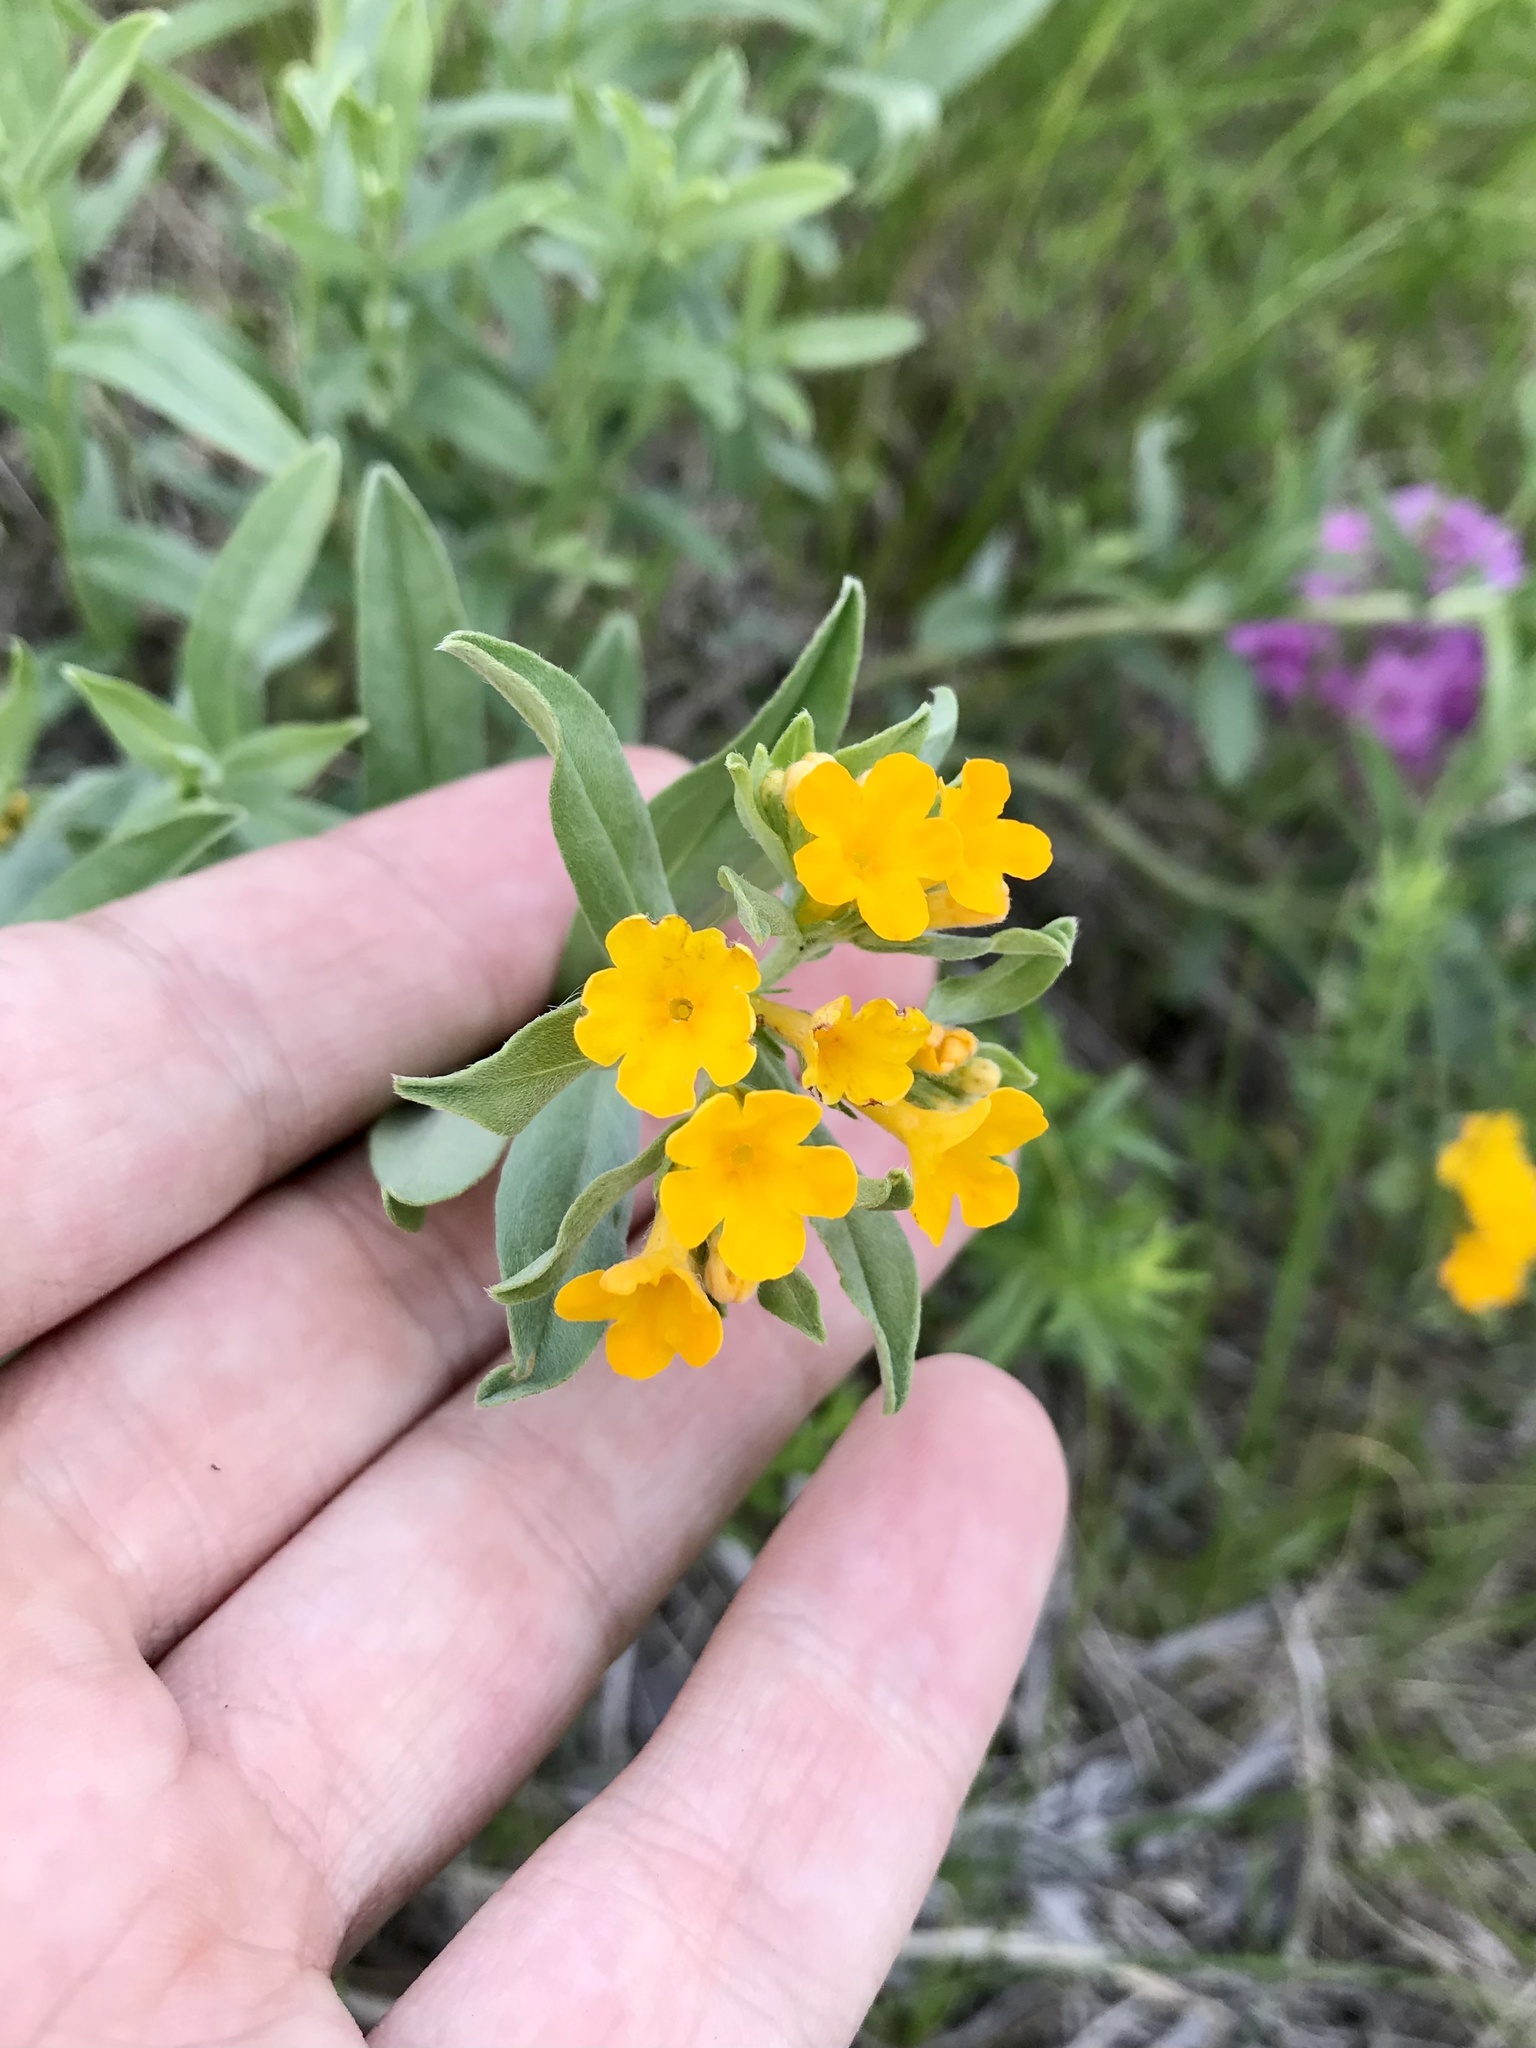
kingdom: Plantae
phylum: Tracheophyta
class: Magnoliopsida
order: Boraginales
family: Boraginaceae
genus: Lithospermum
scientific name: Lithospermum canescens
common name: Hoary puccoon
